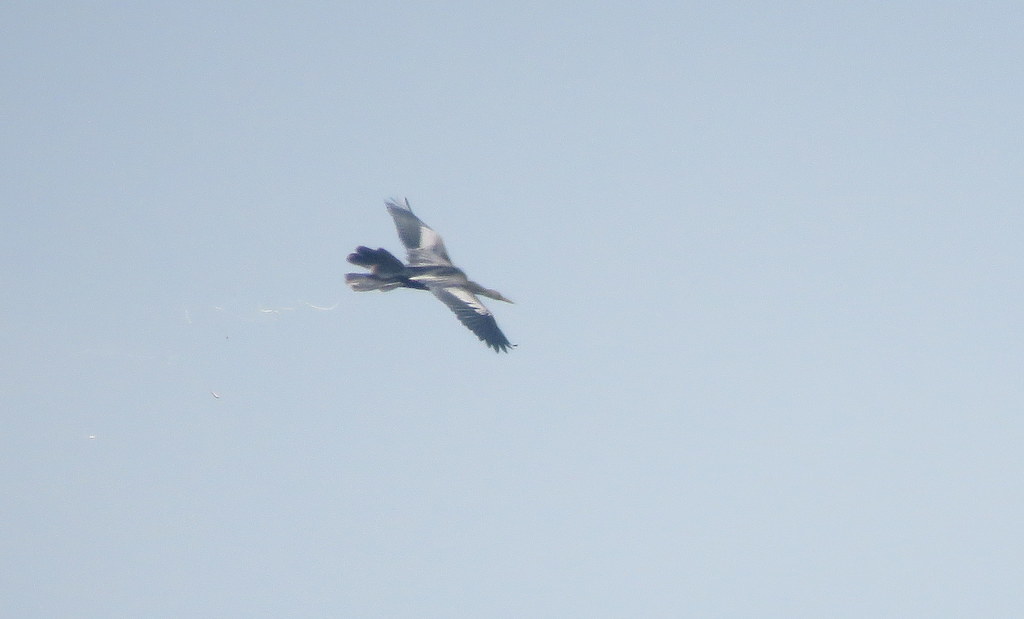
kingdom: Animalia
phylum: Chordata
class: Aves
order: Suliformes
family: Anhingidae
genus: Anhinga
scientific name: Anhinga anhinga
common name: Anhinga
